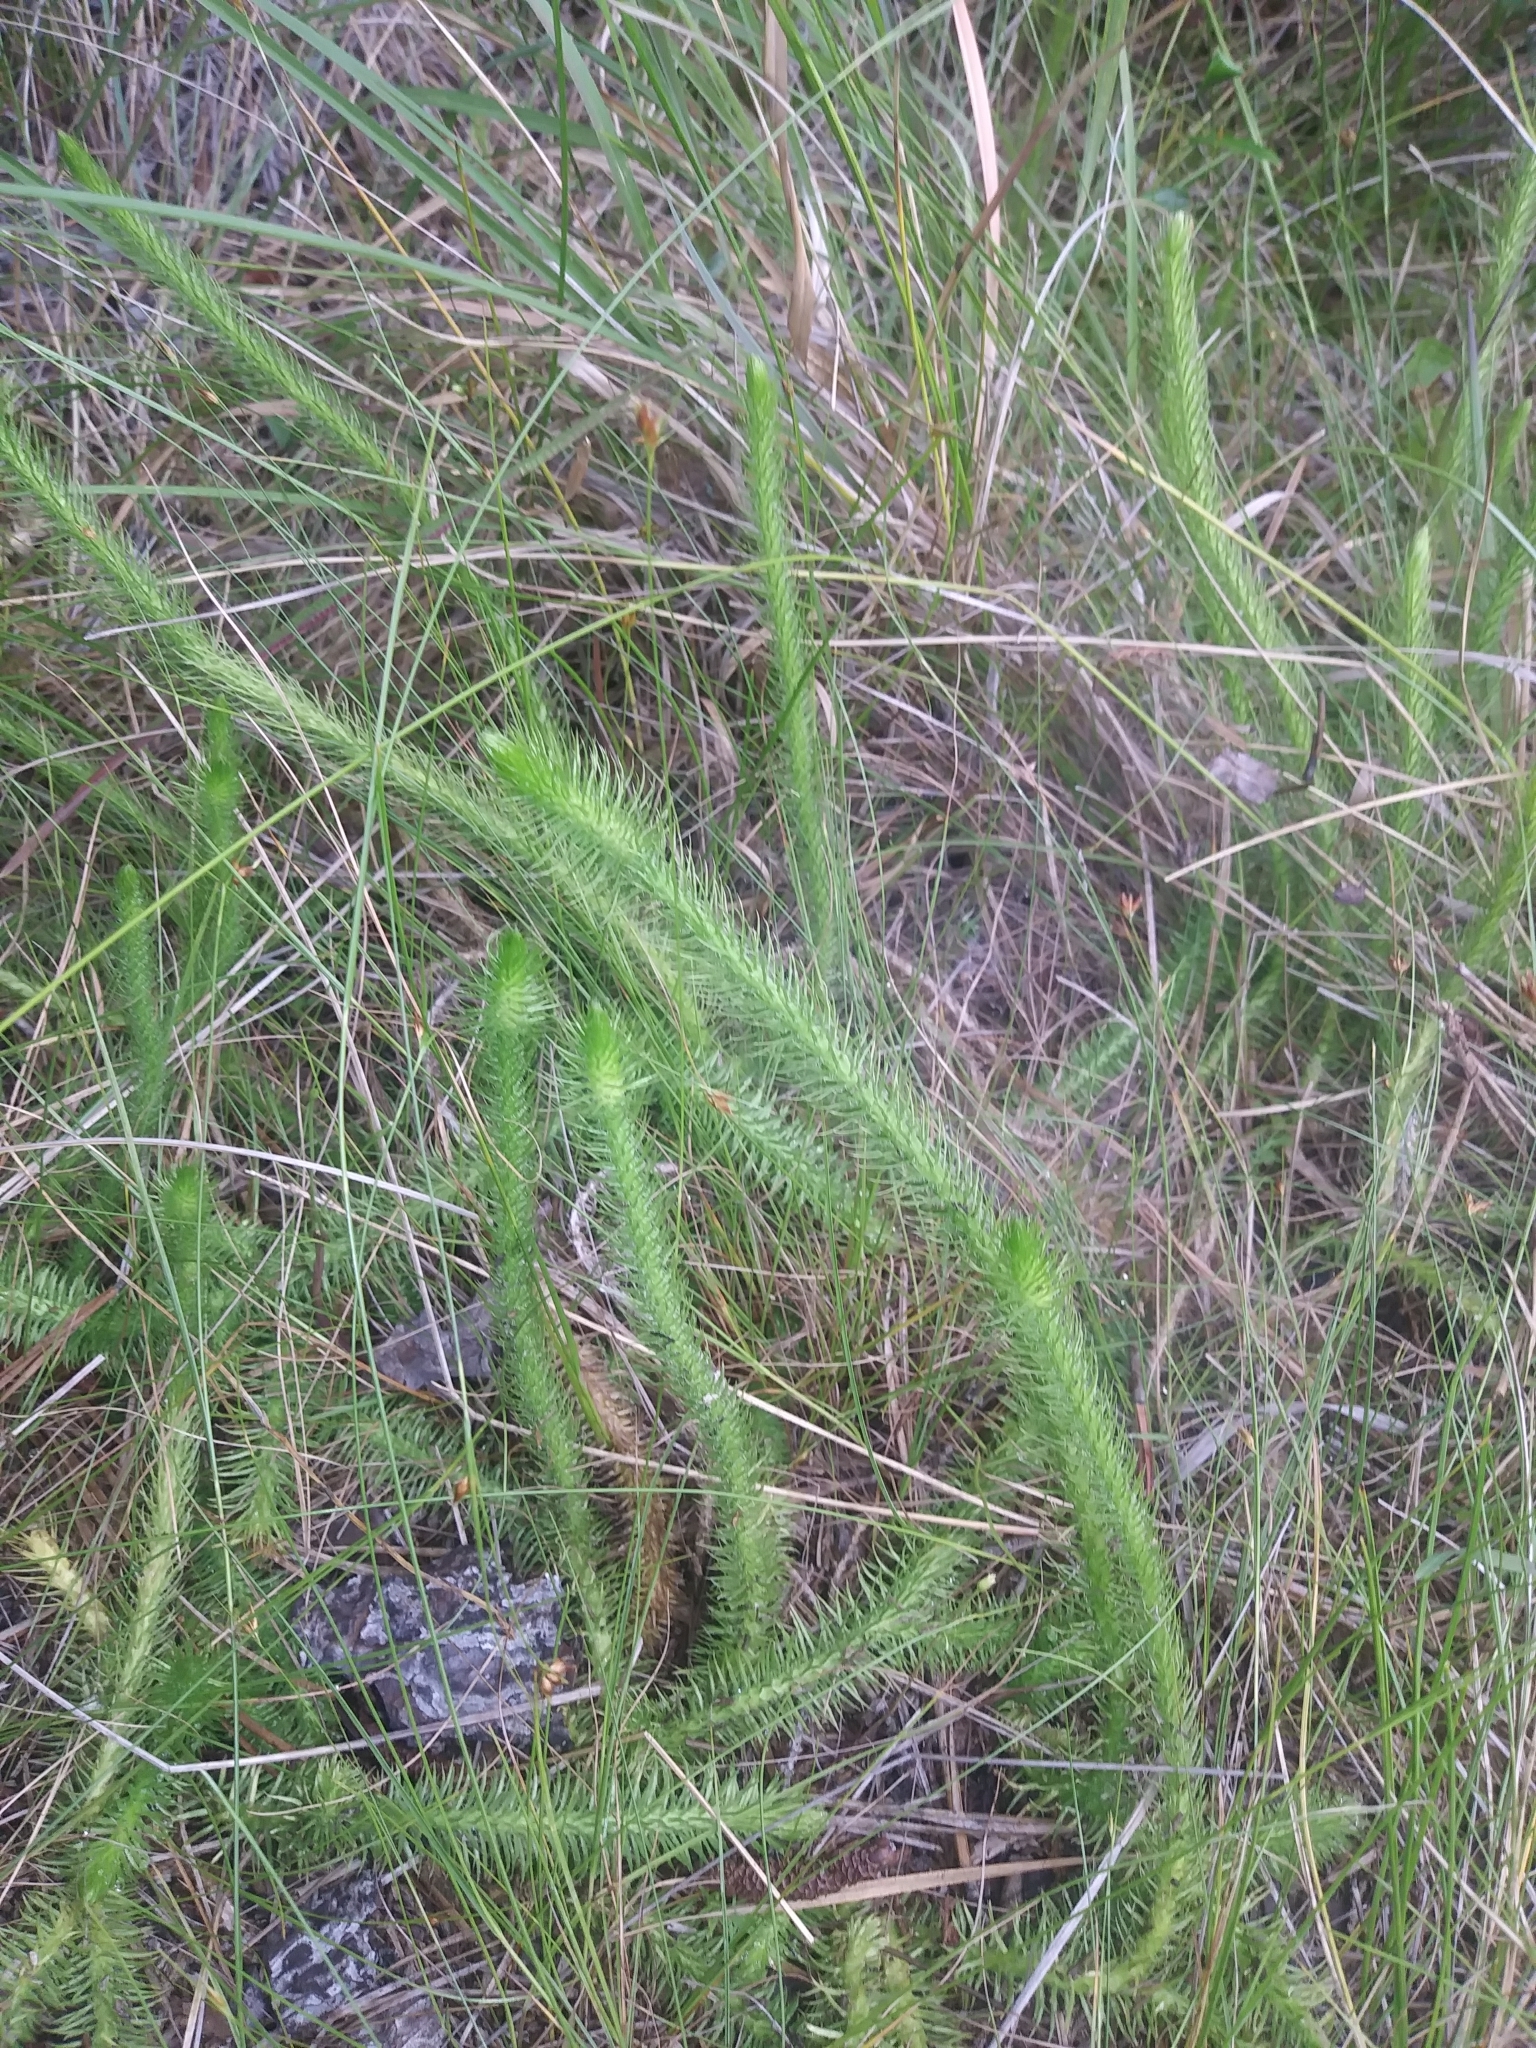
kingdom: Plantae
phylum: Tracheophyta
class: Lycopodiopsida
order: Lycopodiales
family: Lycopodiaceae
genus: Lycopodiella
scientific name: Lycopodiella alopecuroides
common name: Foxtail clubmoss
